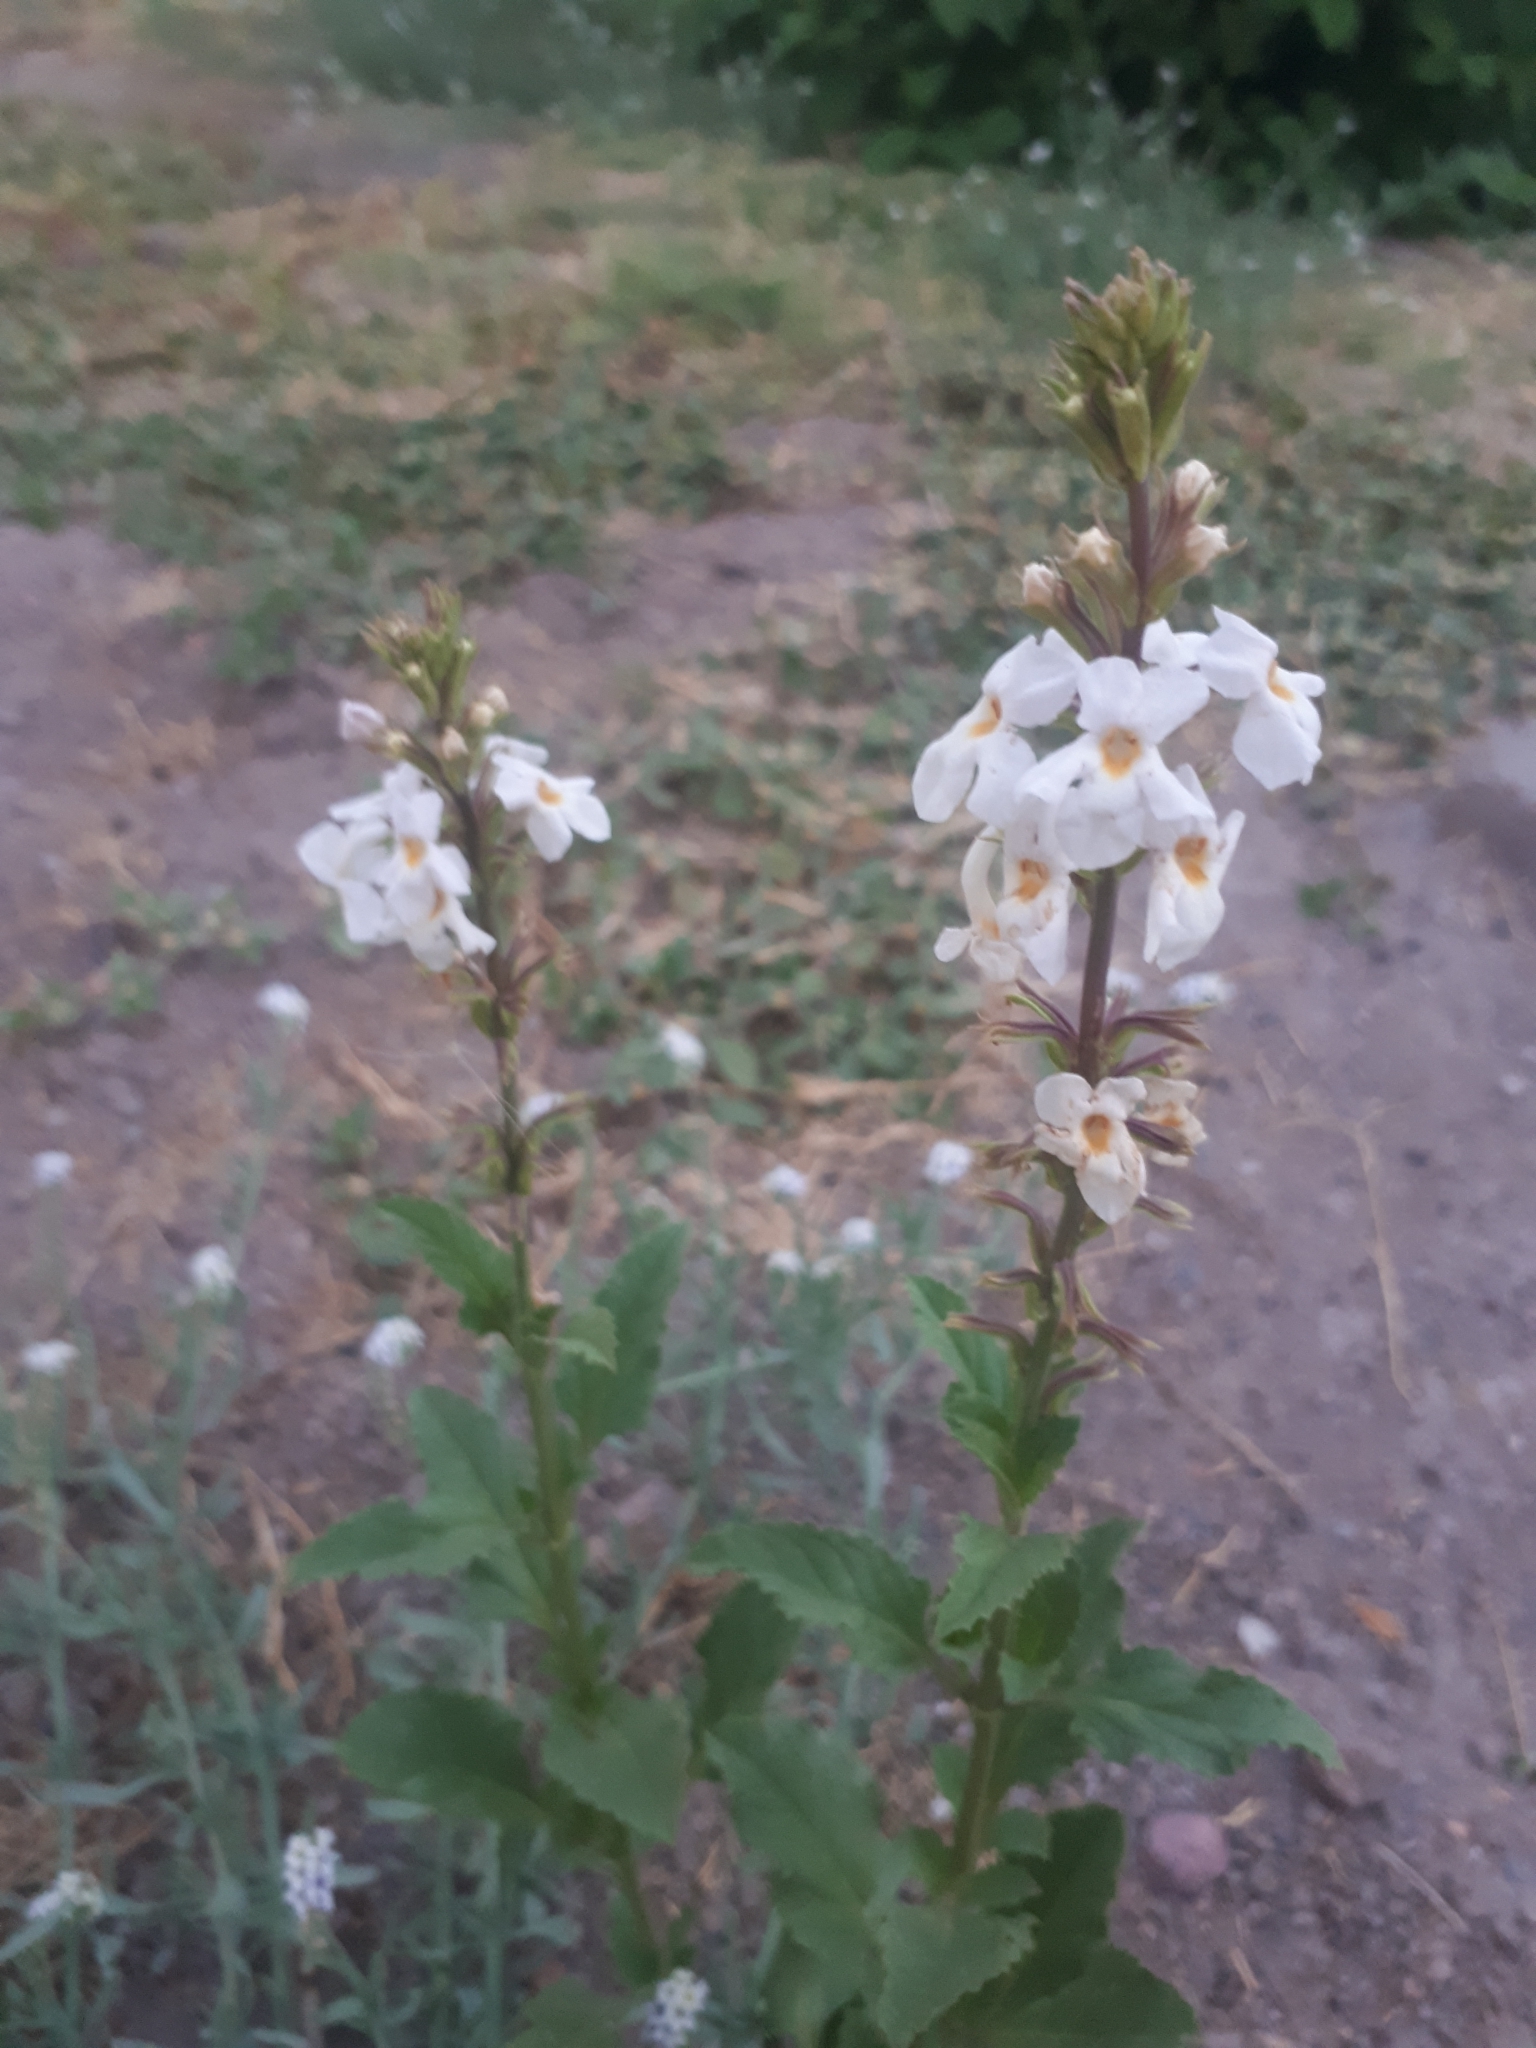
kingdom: Plantae
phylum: Tracheophyta
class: Magnoliopsida
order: Lamiales
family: Verbenaceae
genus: Pitraea
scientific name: Pitraea cuneato-ovata
